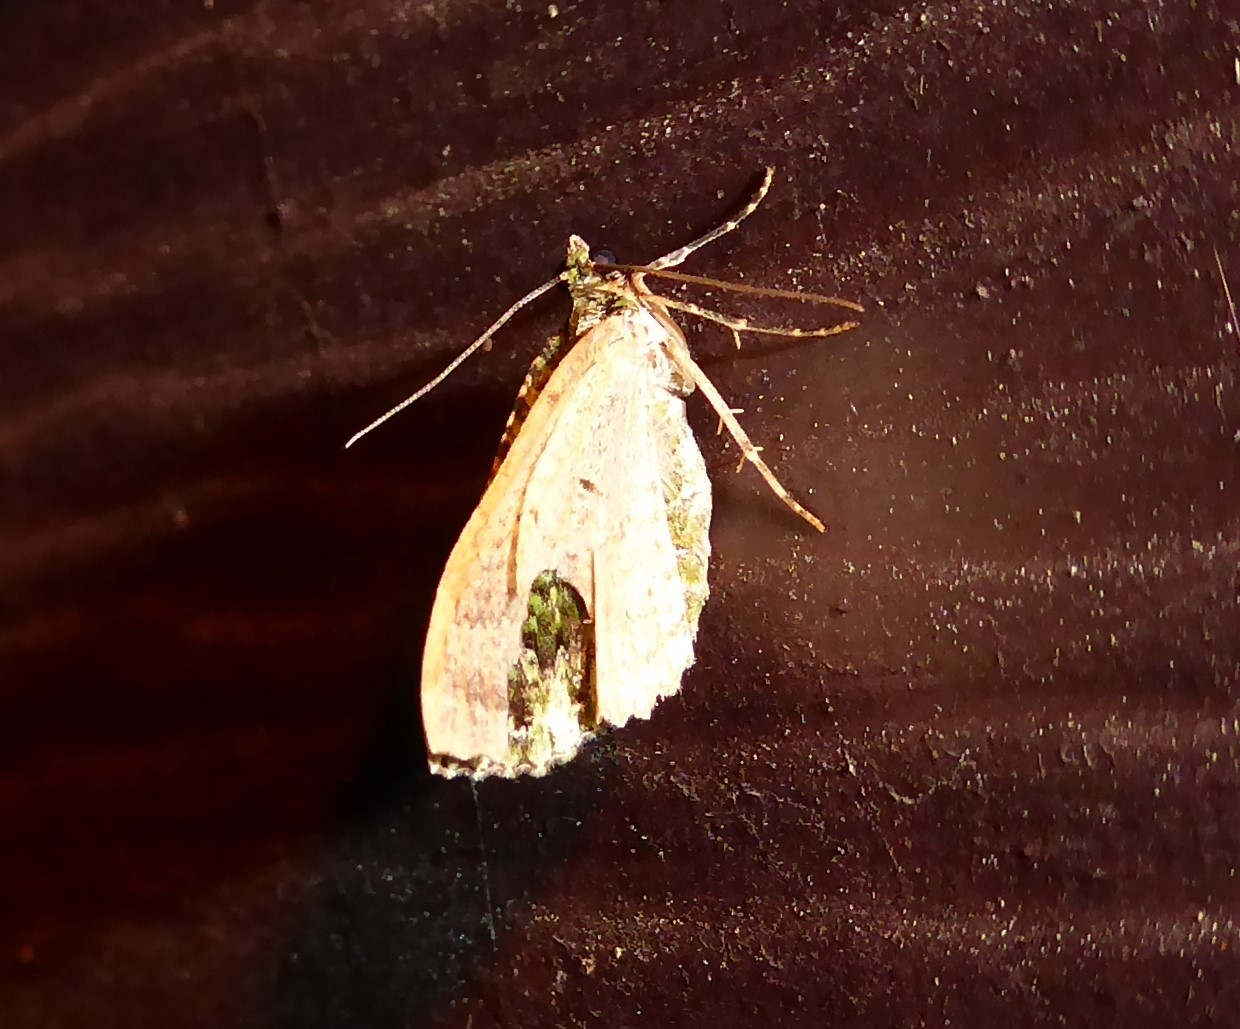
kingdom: Animalia
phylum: Arthropoda
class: Insecta
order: Lepidoptera
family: Geometridae
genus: Austrocidaria
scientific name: Austrocidaria similata
